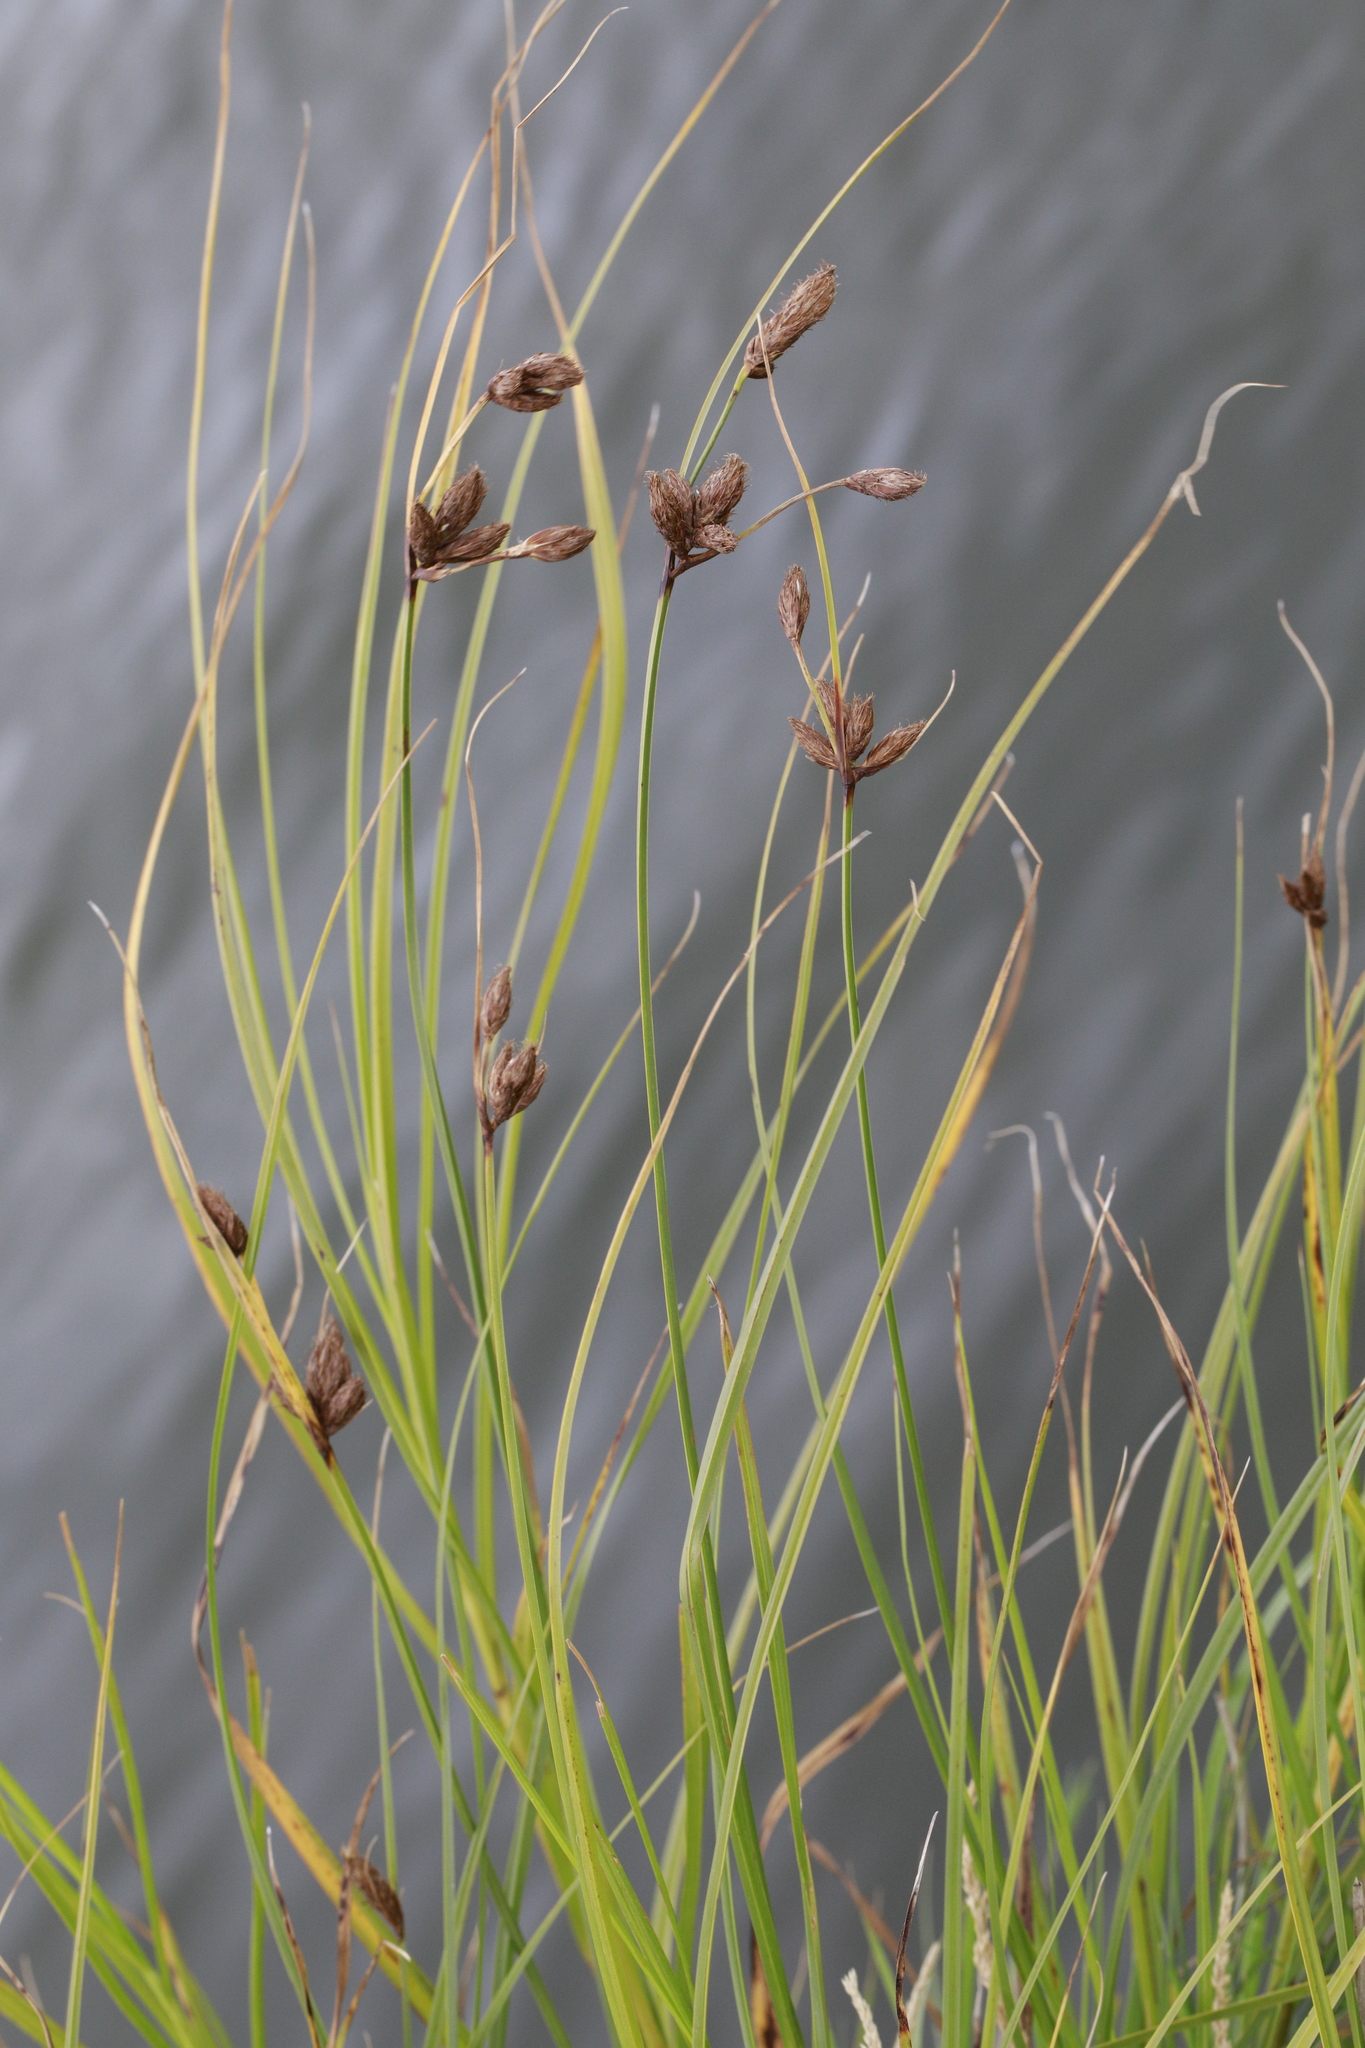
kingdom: Plantae
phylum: Tracheophyta
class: Liliopsida
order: Poales
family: Cyperaceae
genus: Bolboschoenus
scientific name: Bolboschoenus maritimus
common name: Sea club-rush
